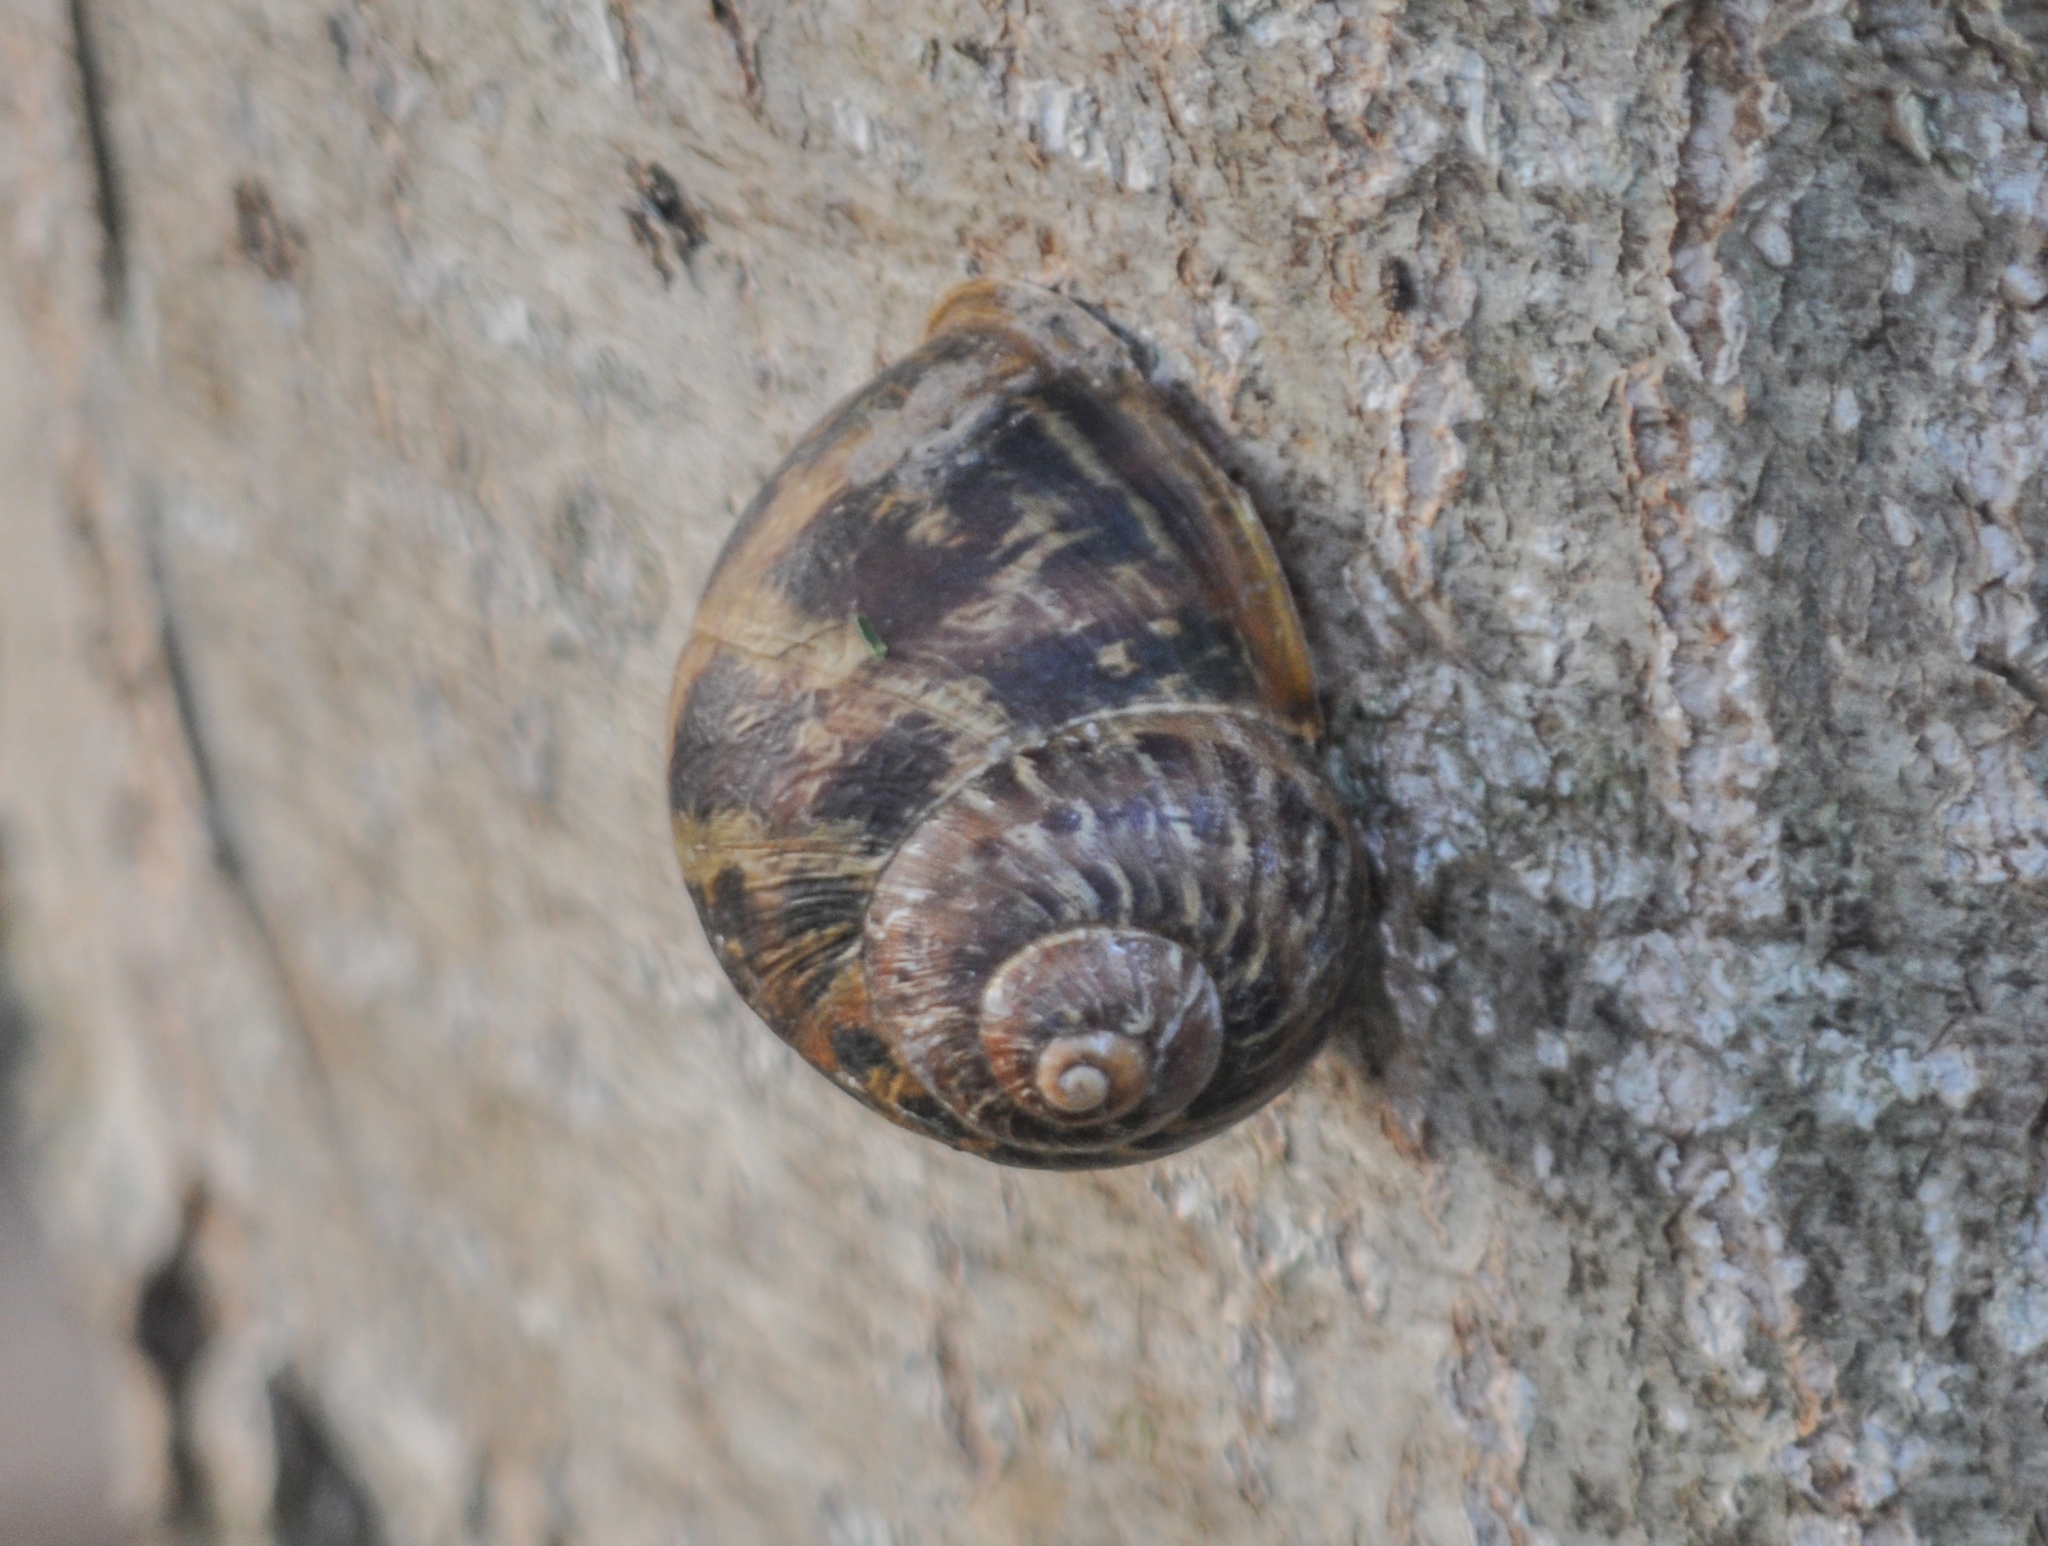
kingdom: Animalia
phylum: Mollusca
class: Gastropoda
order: Stylommatophora
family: Helicidae
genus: Cornu
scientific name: Cornu aspersum
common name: Brown garden snail
